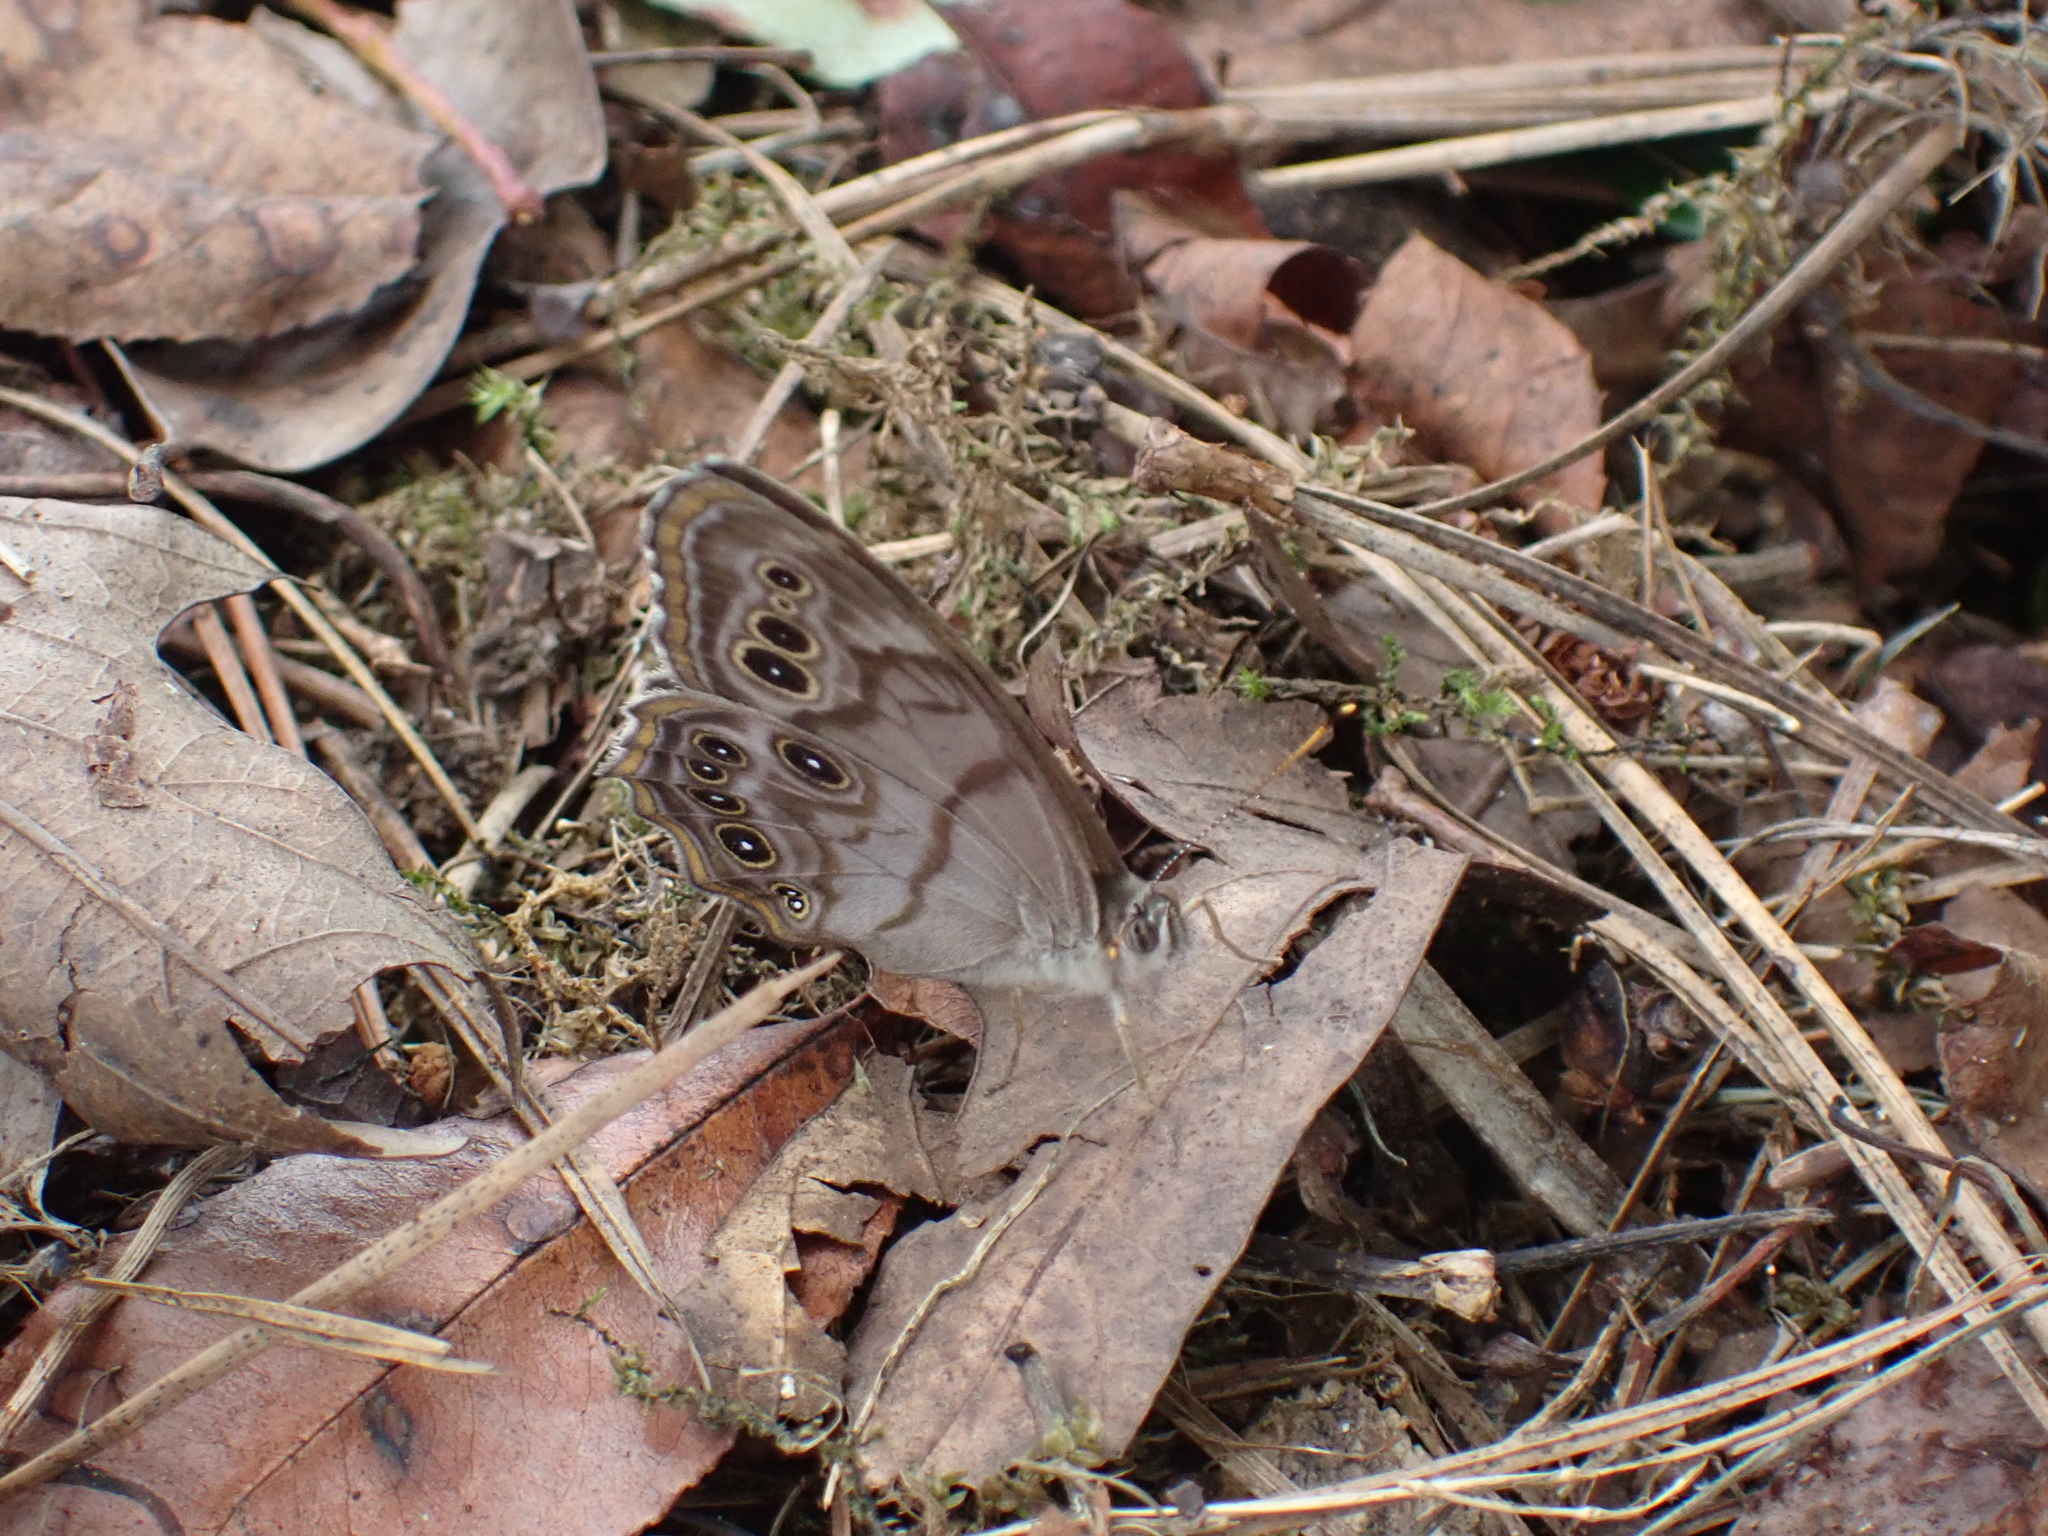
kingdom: Animalia
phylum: Arthropoda
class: Insecta
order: Lepidoptera
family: Nymphalidae
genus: Lethe
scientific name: Lethe anthedon
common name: Northern pearly-eye
